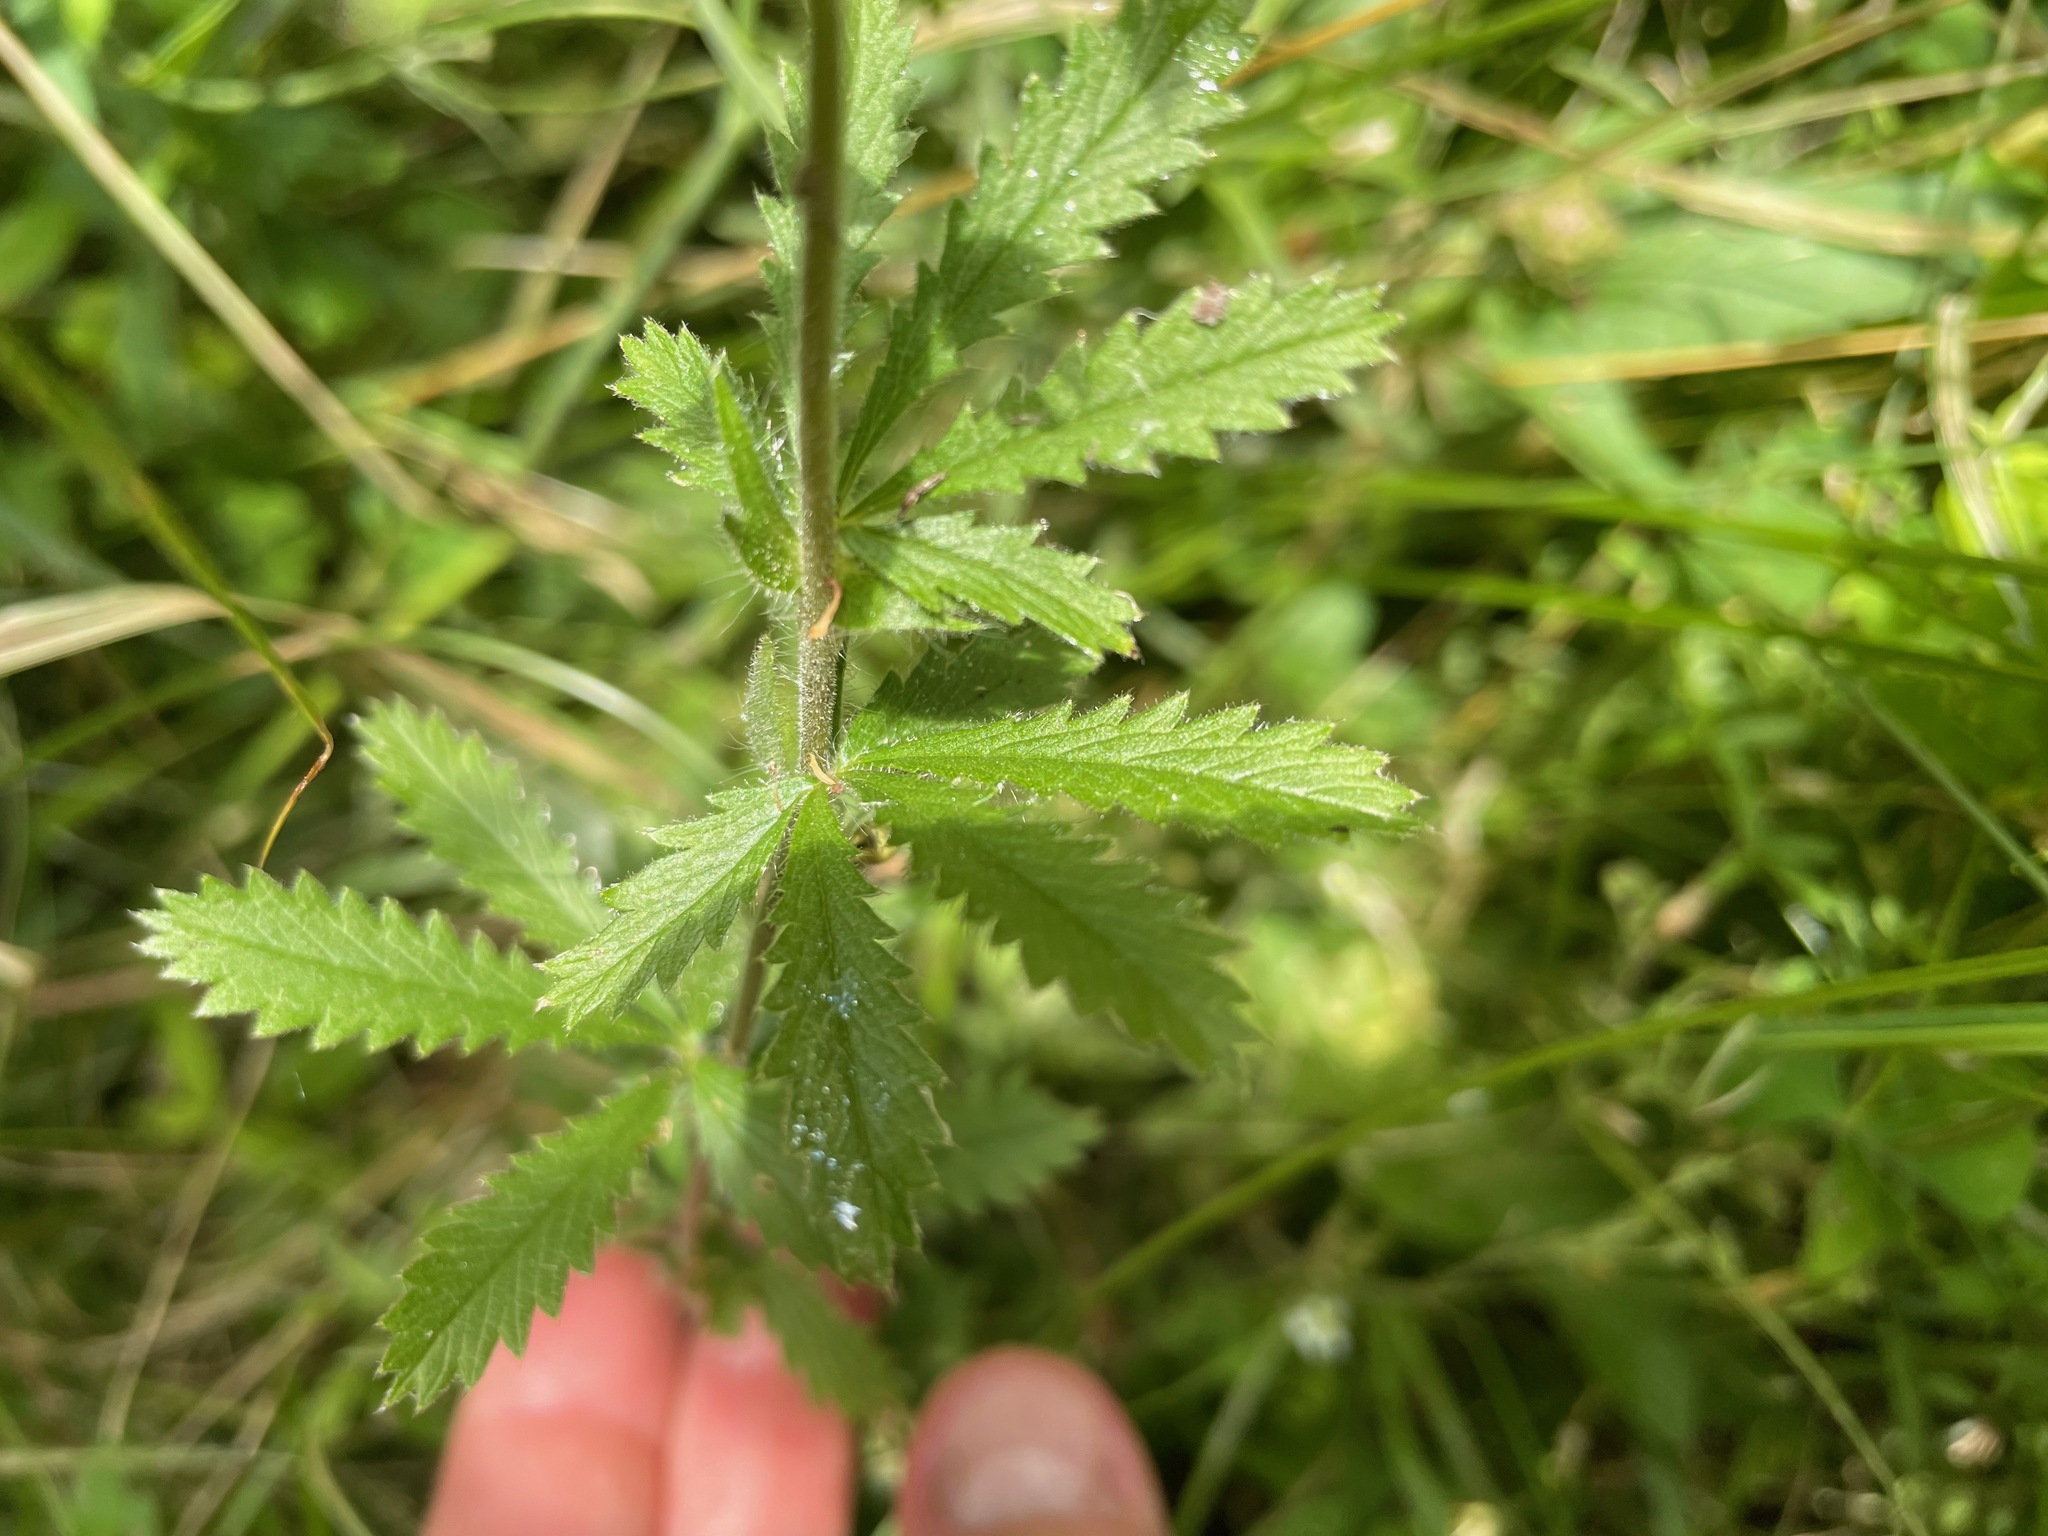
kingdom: Plantae
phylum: Tracheophyta
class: Magnoliopsida
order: Rosales
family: Rosaceae
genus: Potentilla
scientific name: Potentilla recta
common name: Sulphur cinquefoil
